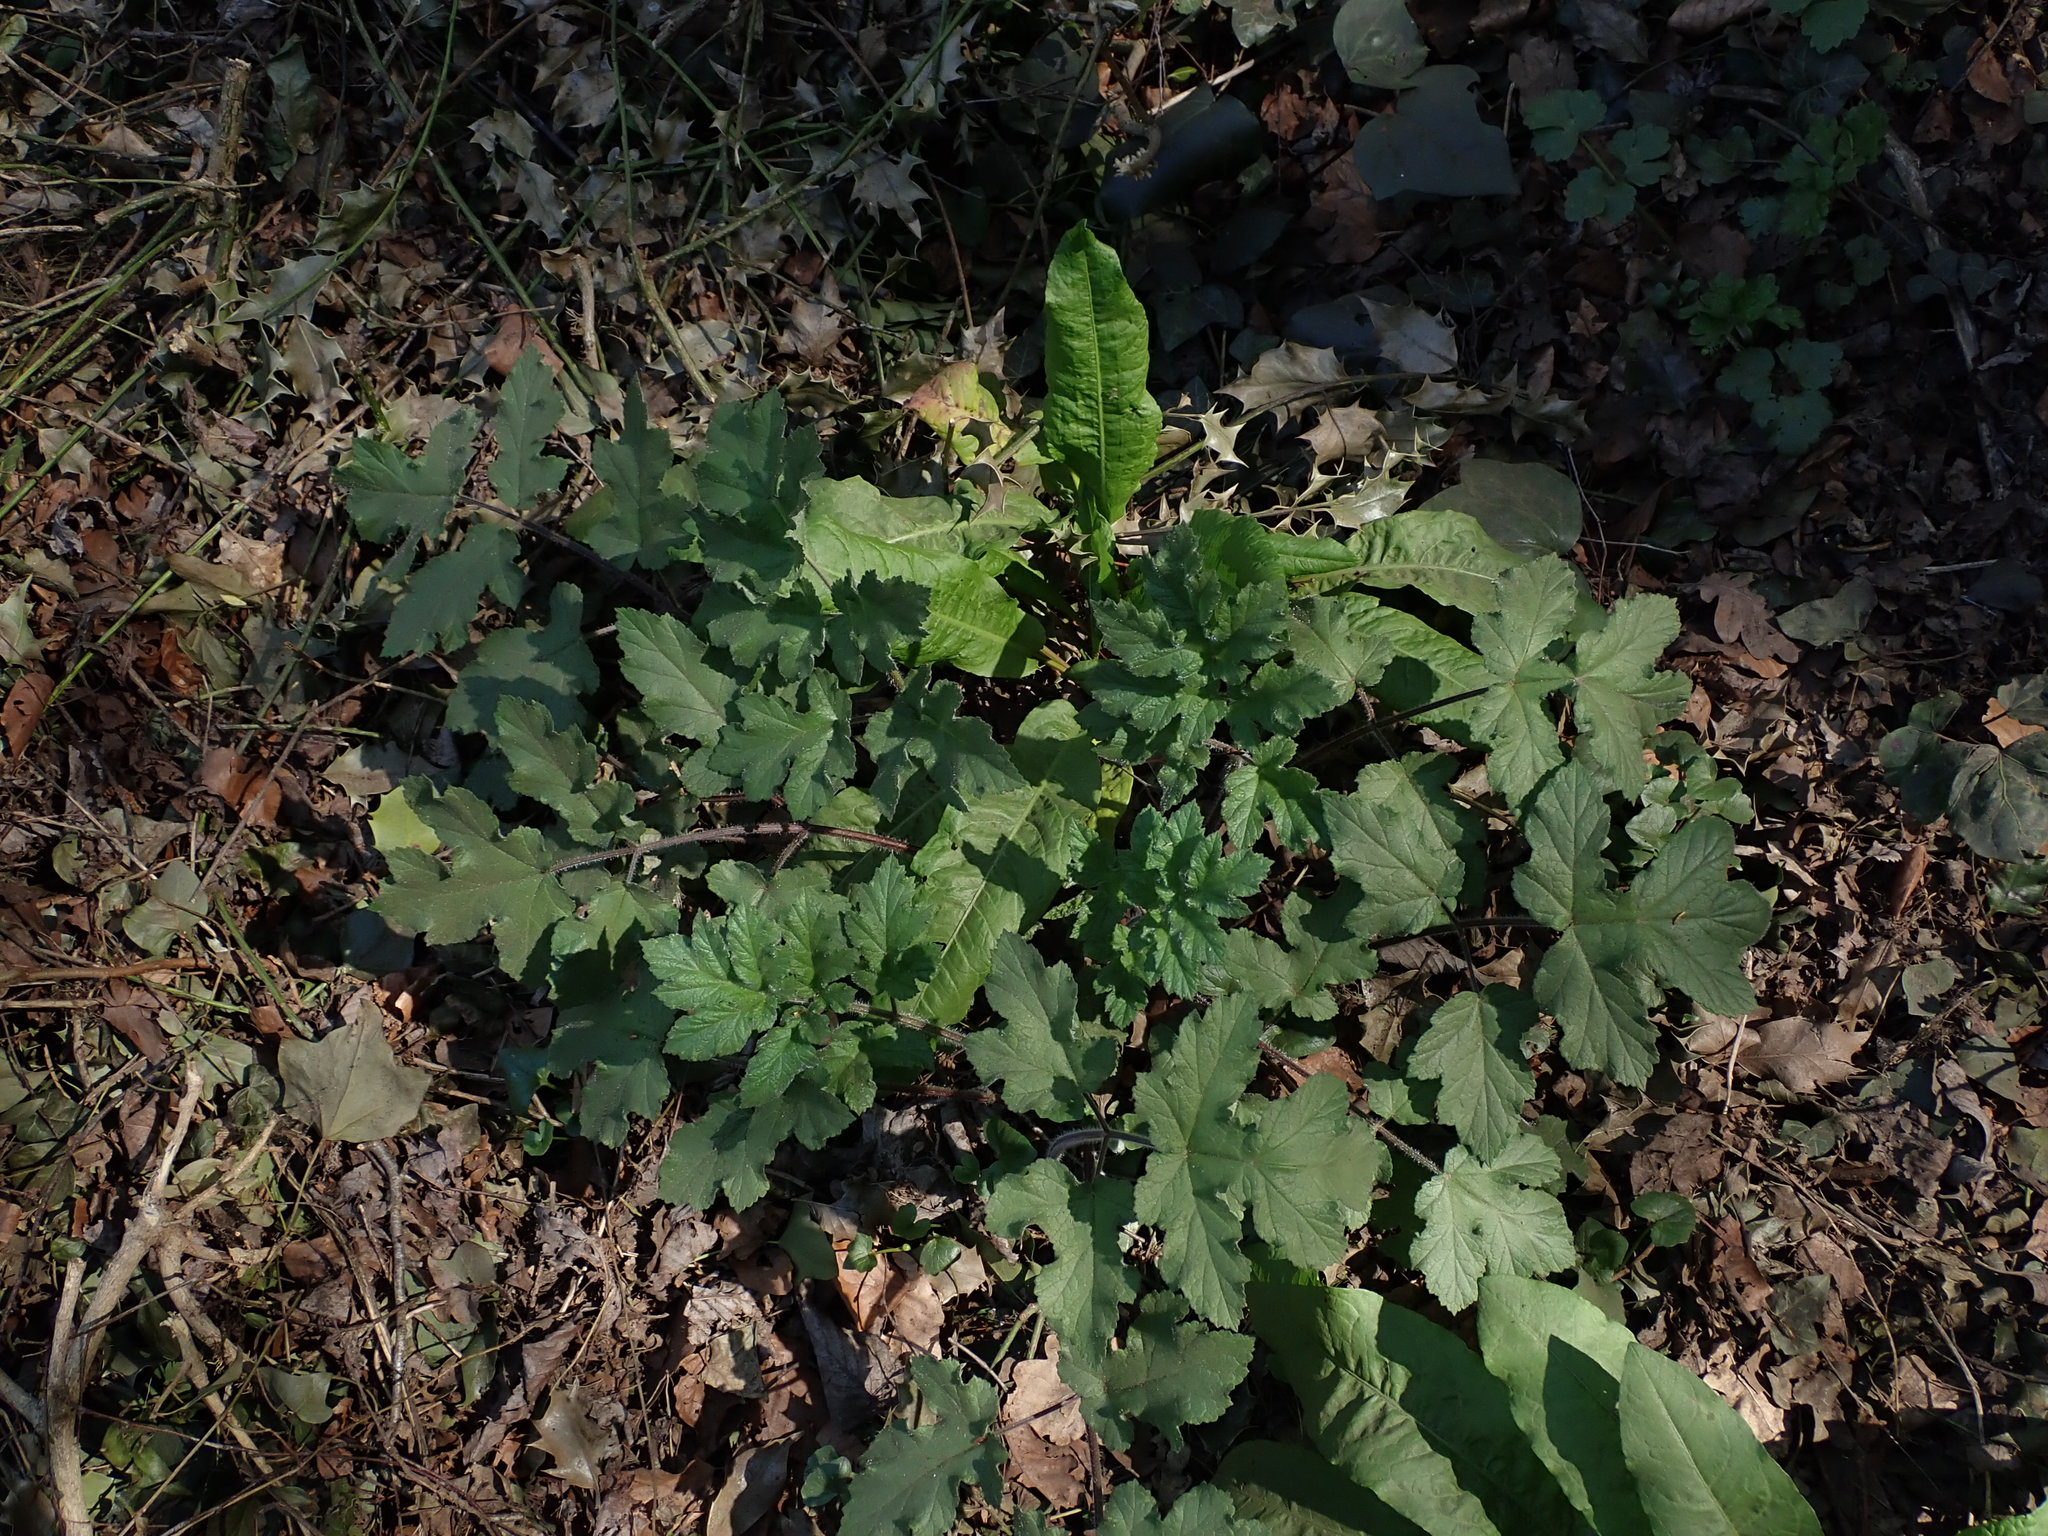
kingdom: Plantae
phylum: Tracheophyta
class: Magnoliopsida
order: Apiales
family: Apiaceae
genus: Heracleum
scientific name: Heracleum sphondylium
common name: Hogweed
